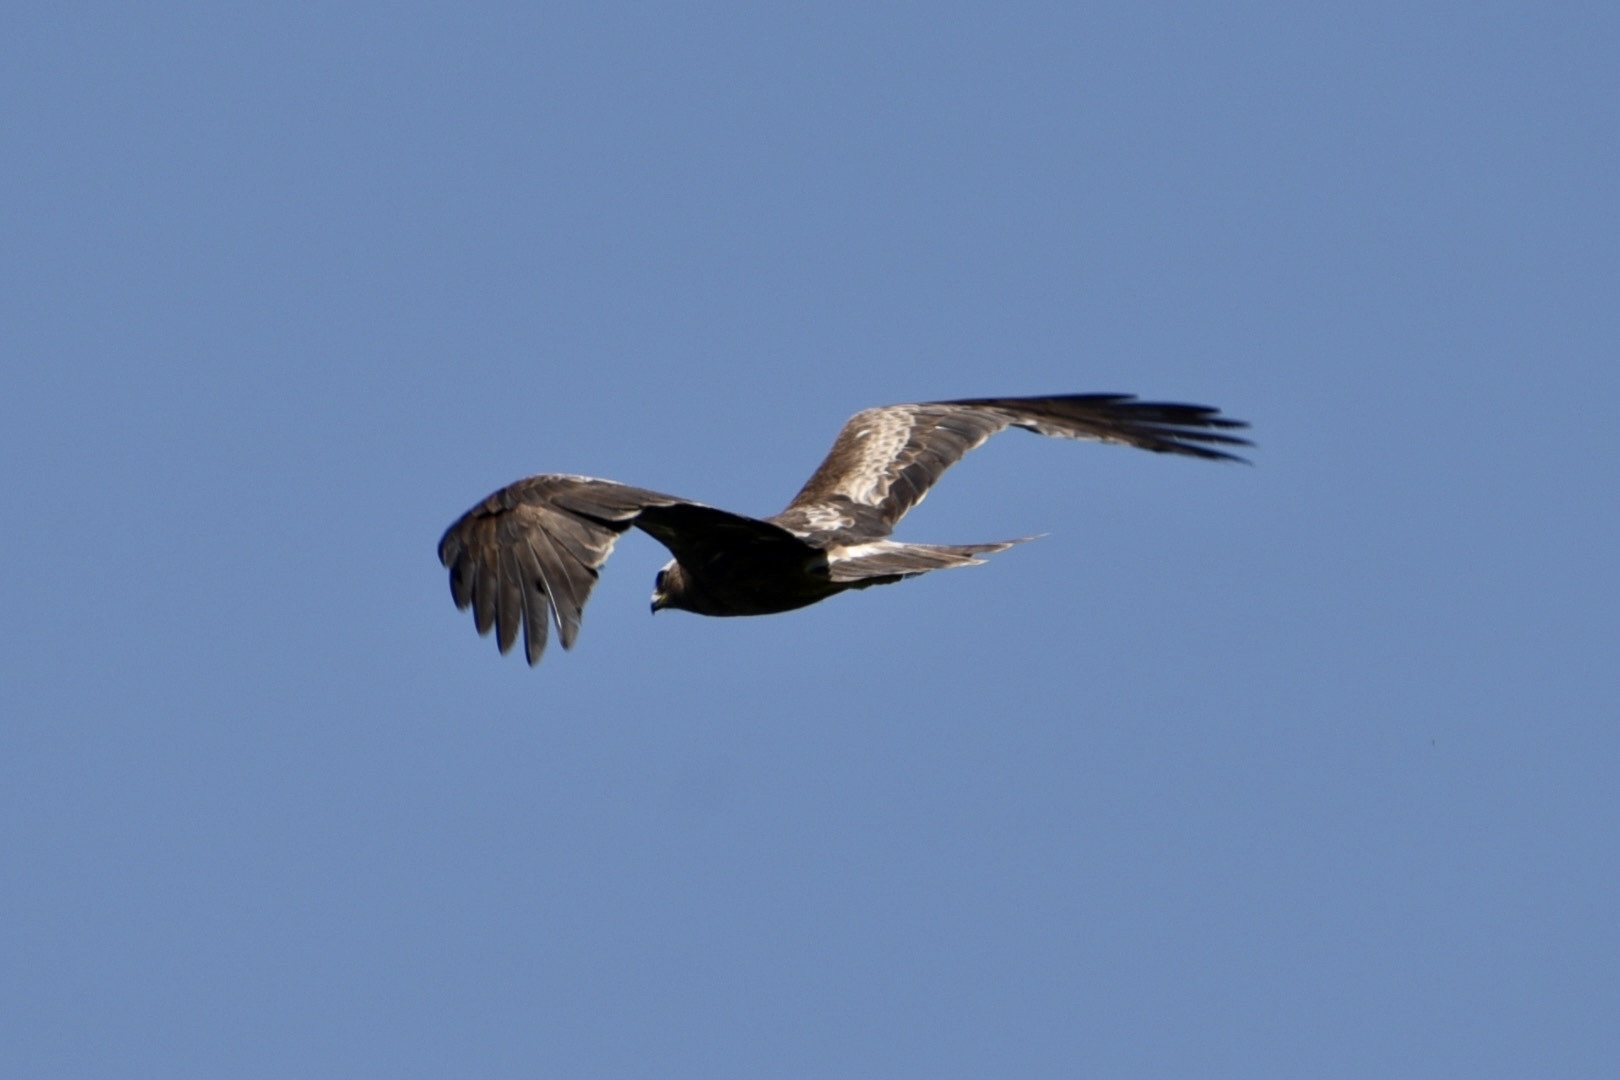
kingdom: Animalia
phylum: Chordata
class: Aves
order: Accipitriformes
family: Accipitridae
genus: Hieraaetus
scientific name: Hieraaetus pennatus
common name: Booted eagle
